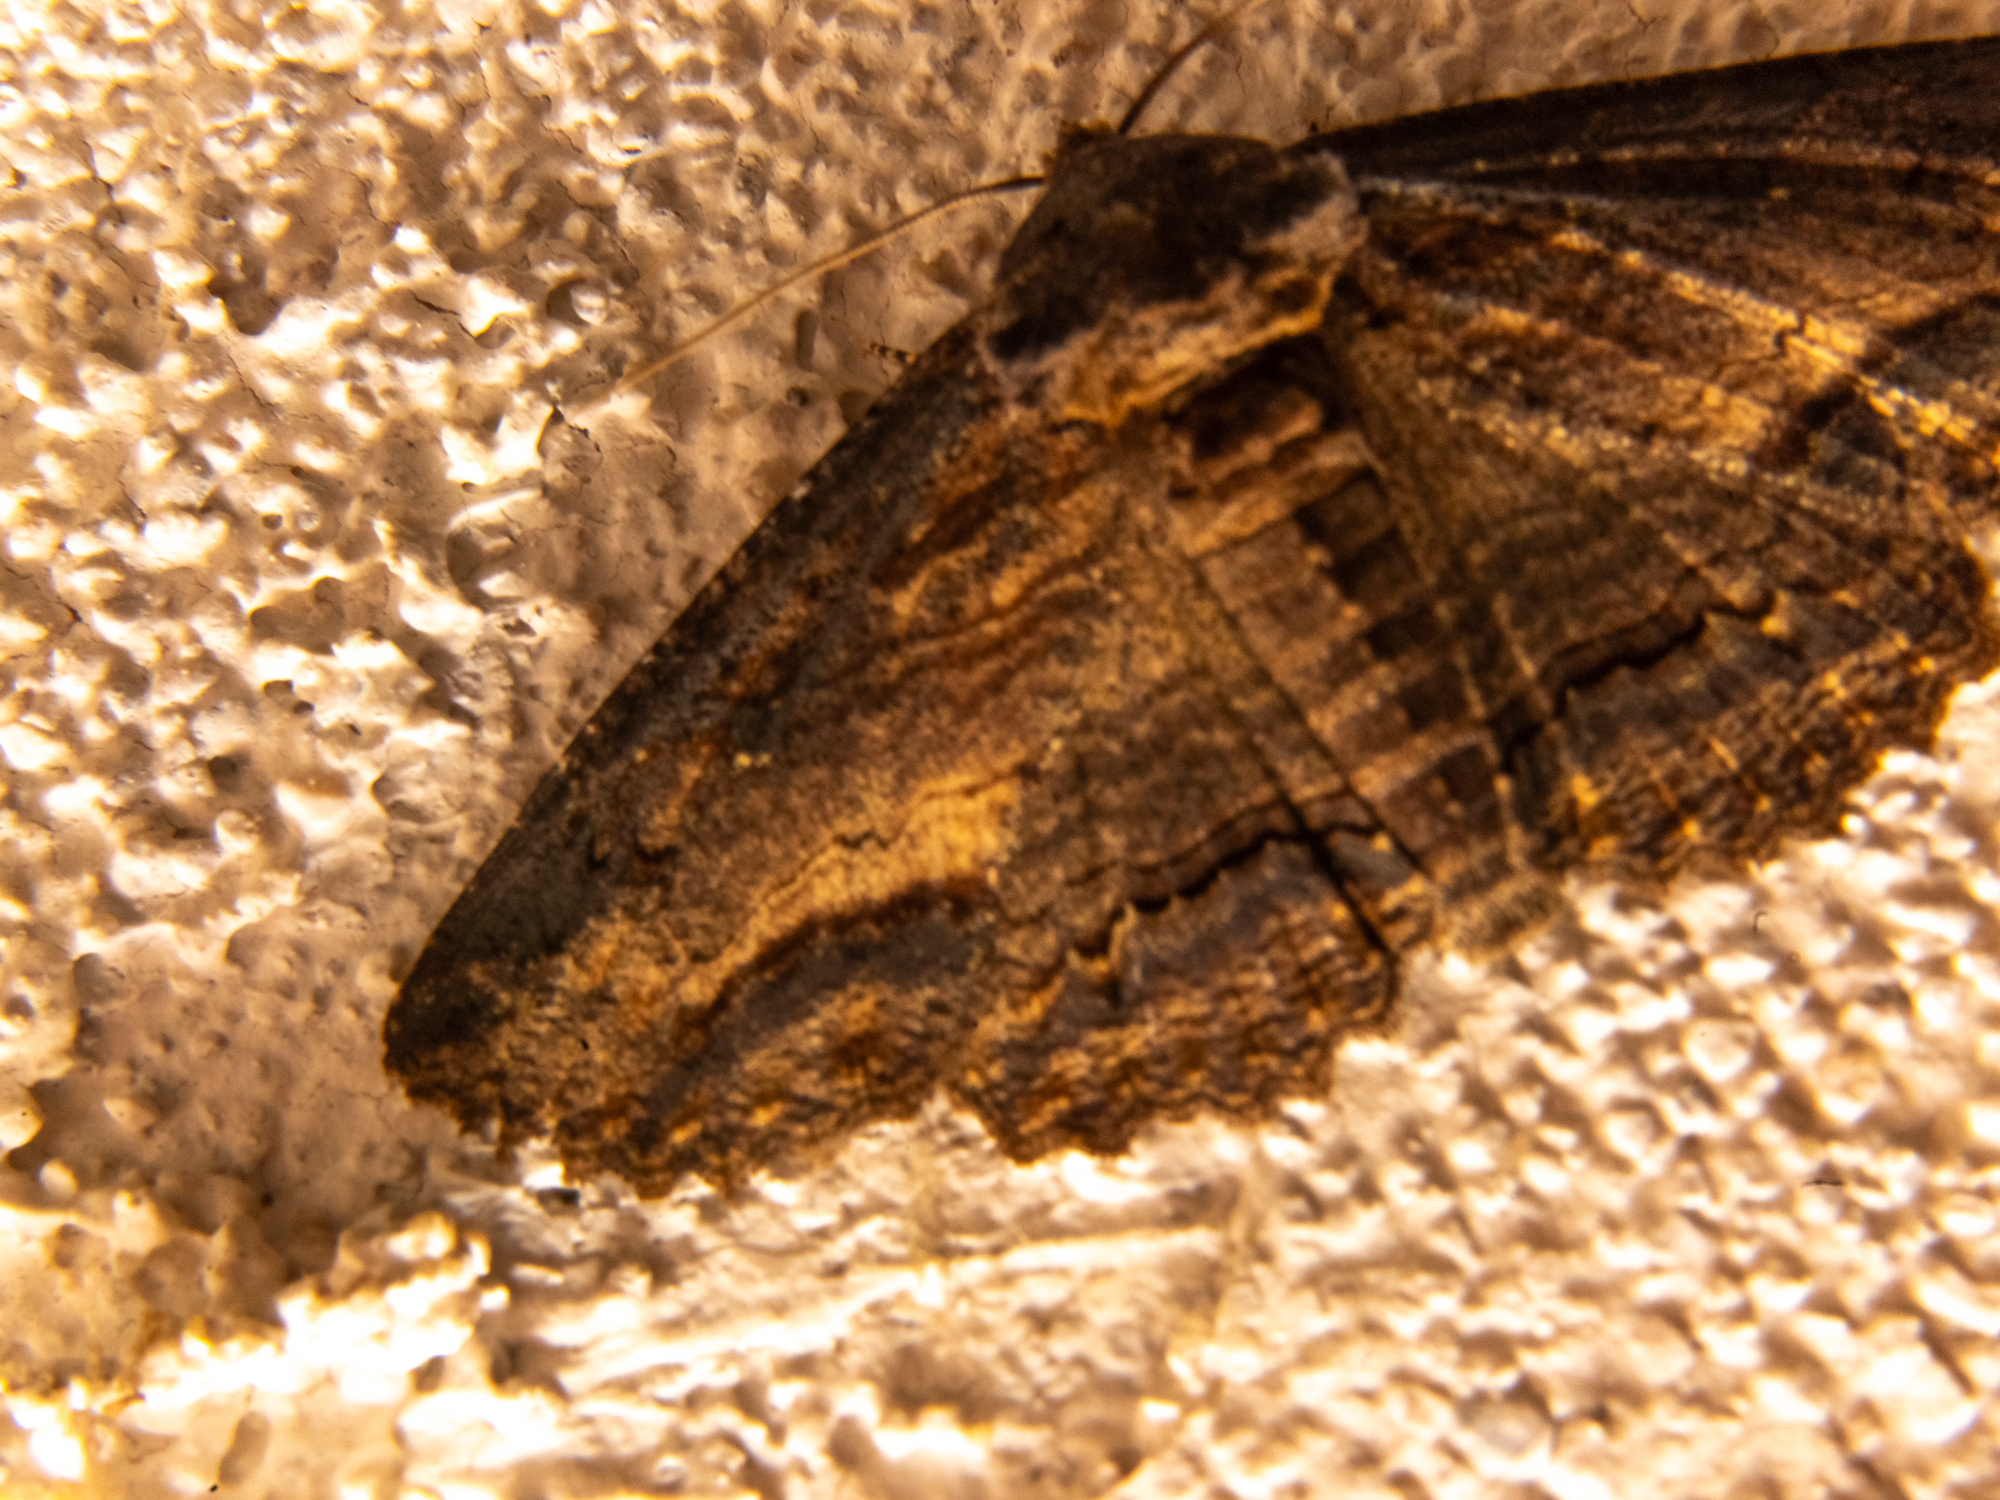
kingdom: Animalia
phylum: Arthropoda
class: Insecta
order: Lepidoptera
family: Erebidae
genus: Zale
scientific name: Zale lunata
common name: Lunate zale moth
